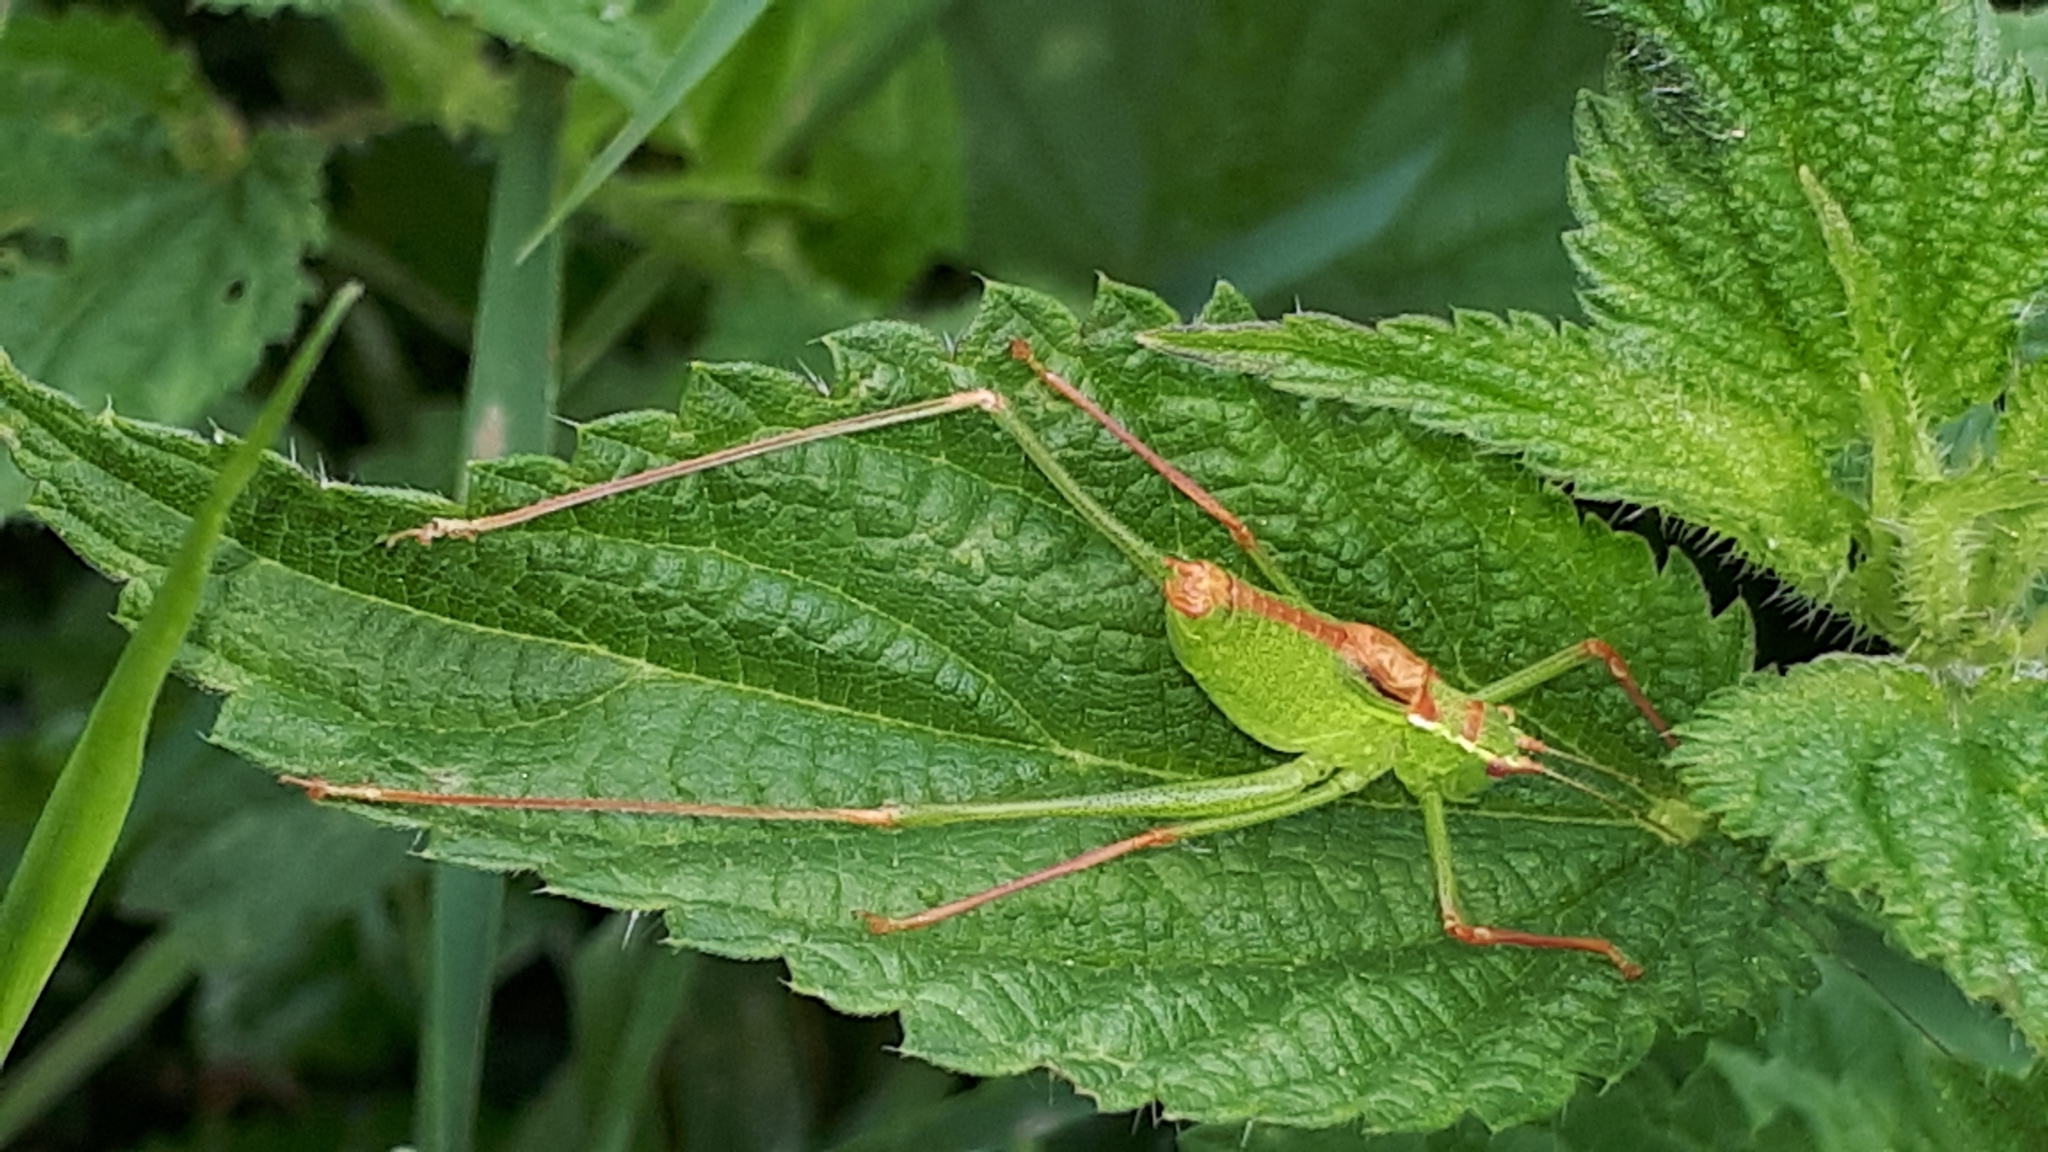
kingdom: Animalia
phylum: Arthropoda
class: Insecta
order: Orthoptera
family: Tettigoniidae
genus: Leptophyes
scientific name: Leptophyes punctatissima
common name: Speckled bush-cricket
